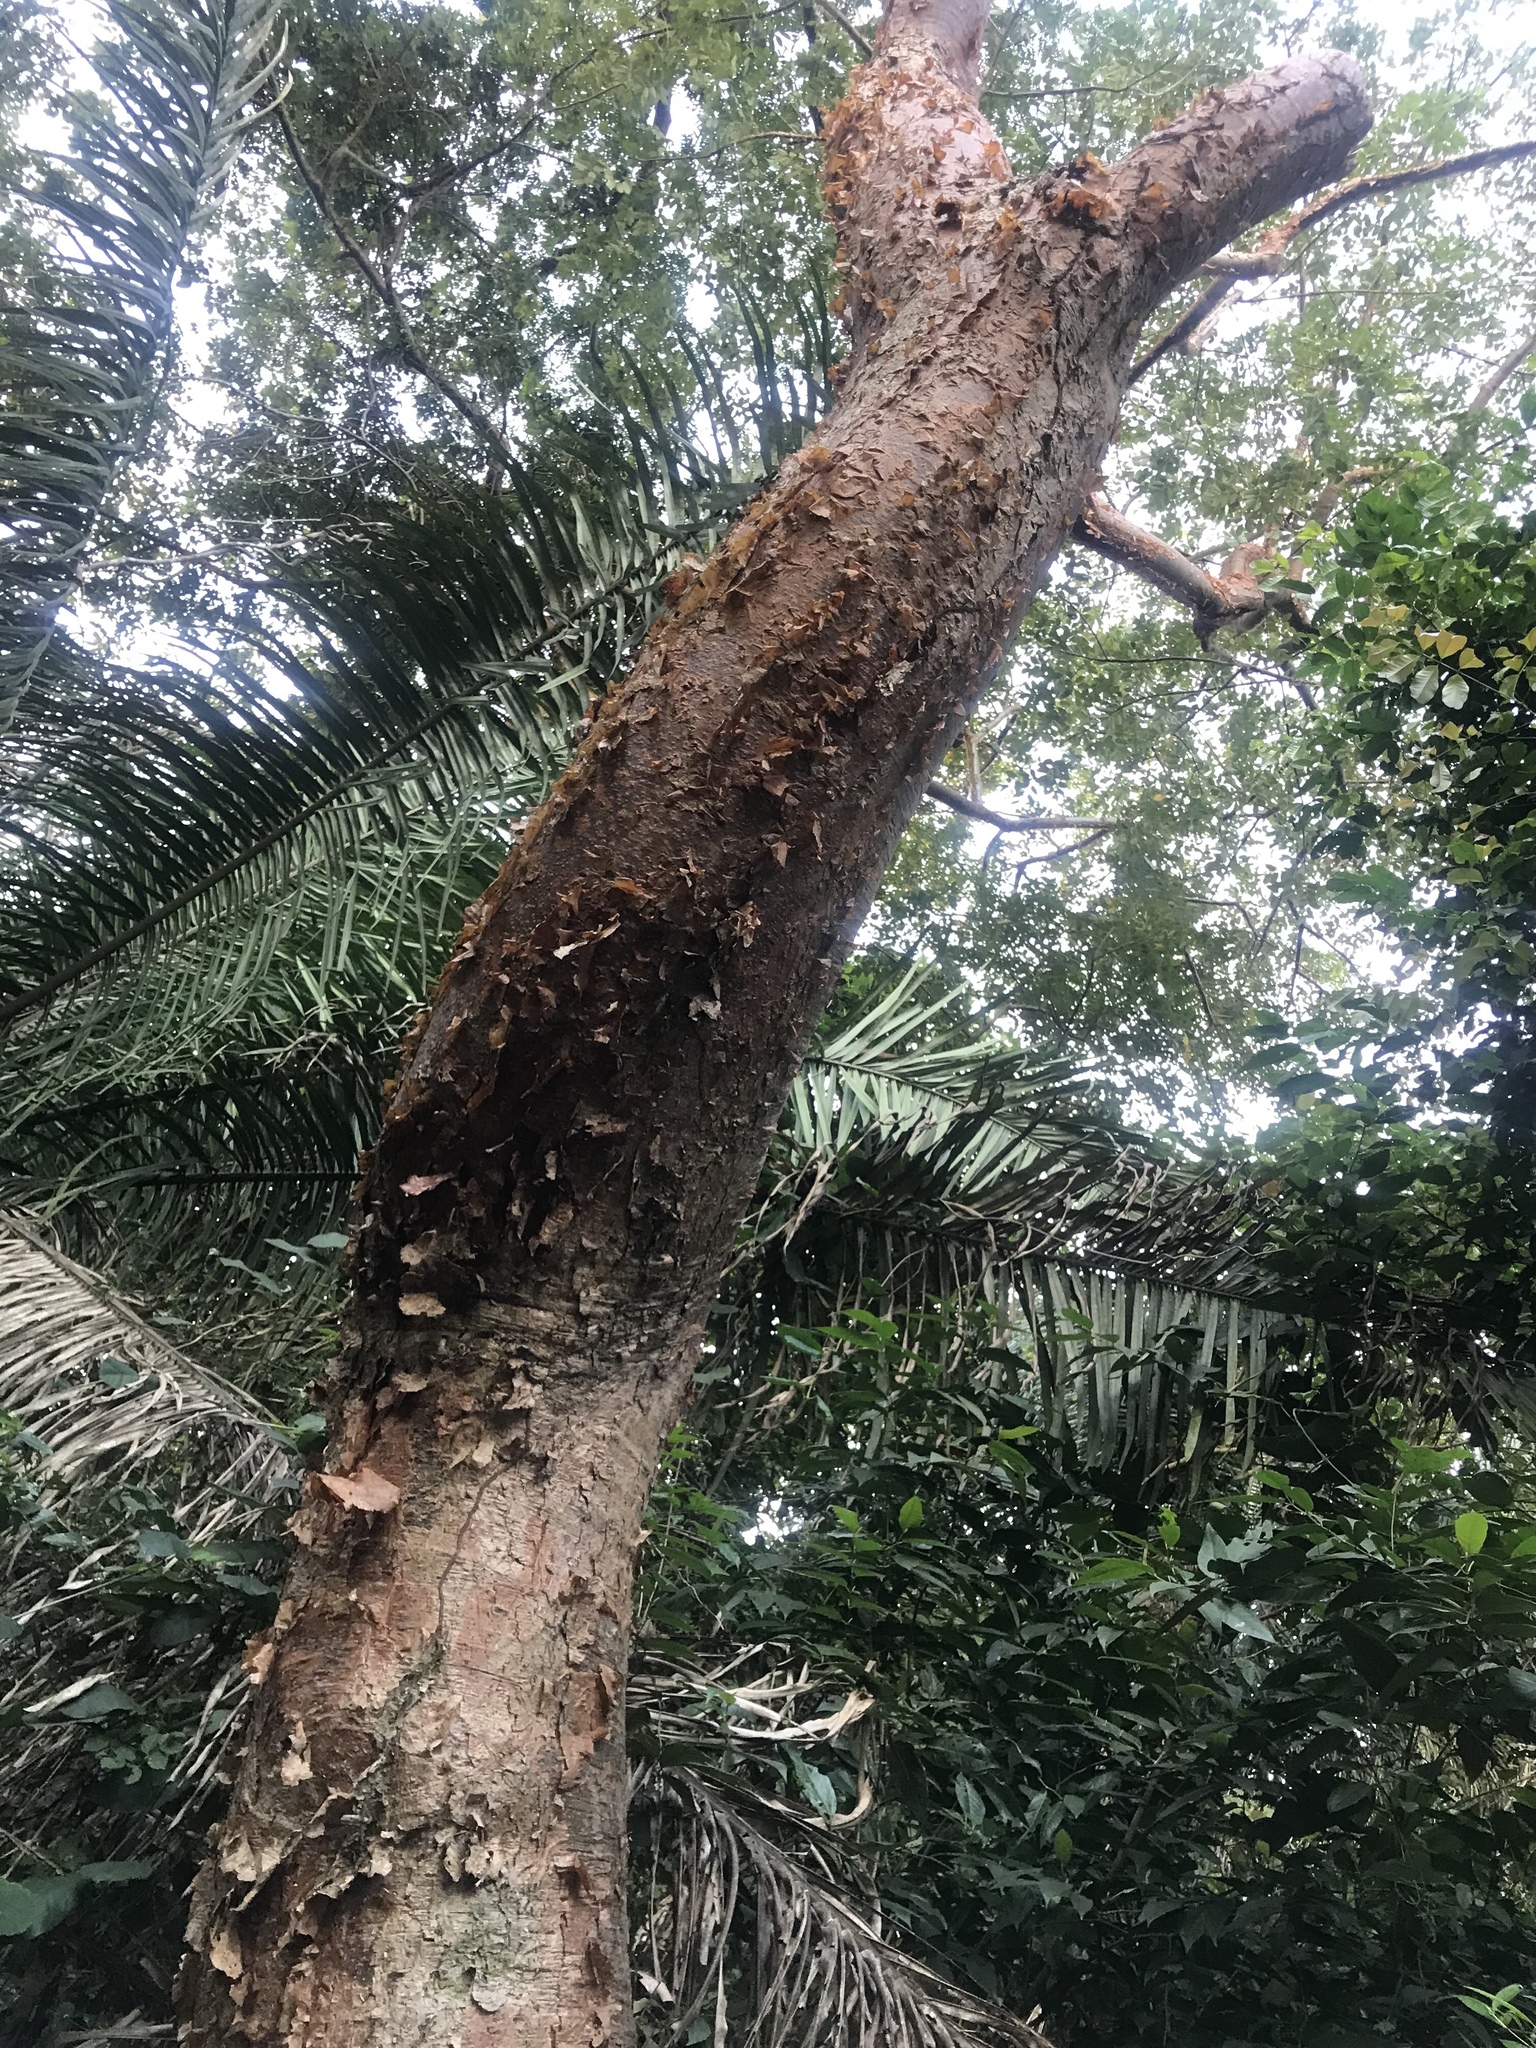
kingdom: Plantae
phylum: Tracheophyta
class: Magnoliopsida
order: Sapindales
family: Burseraceae
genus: Bursera
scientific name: Bursera simaruba
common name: Turpentine tree
